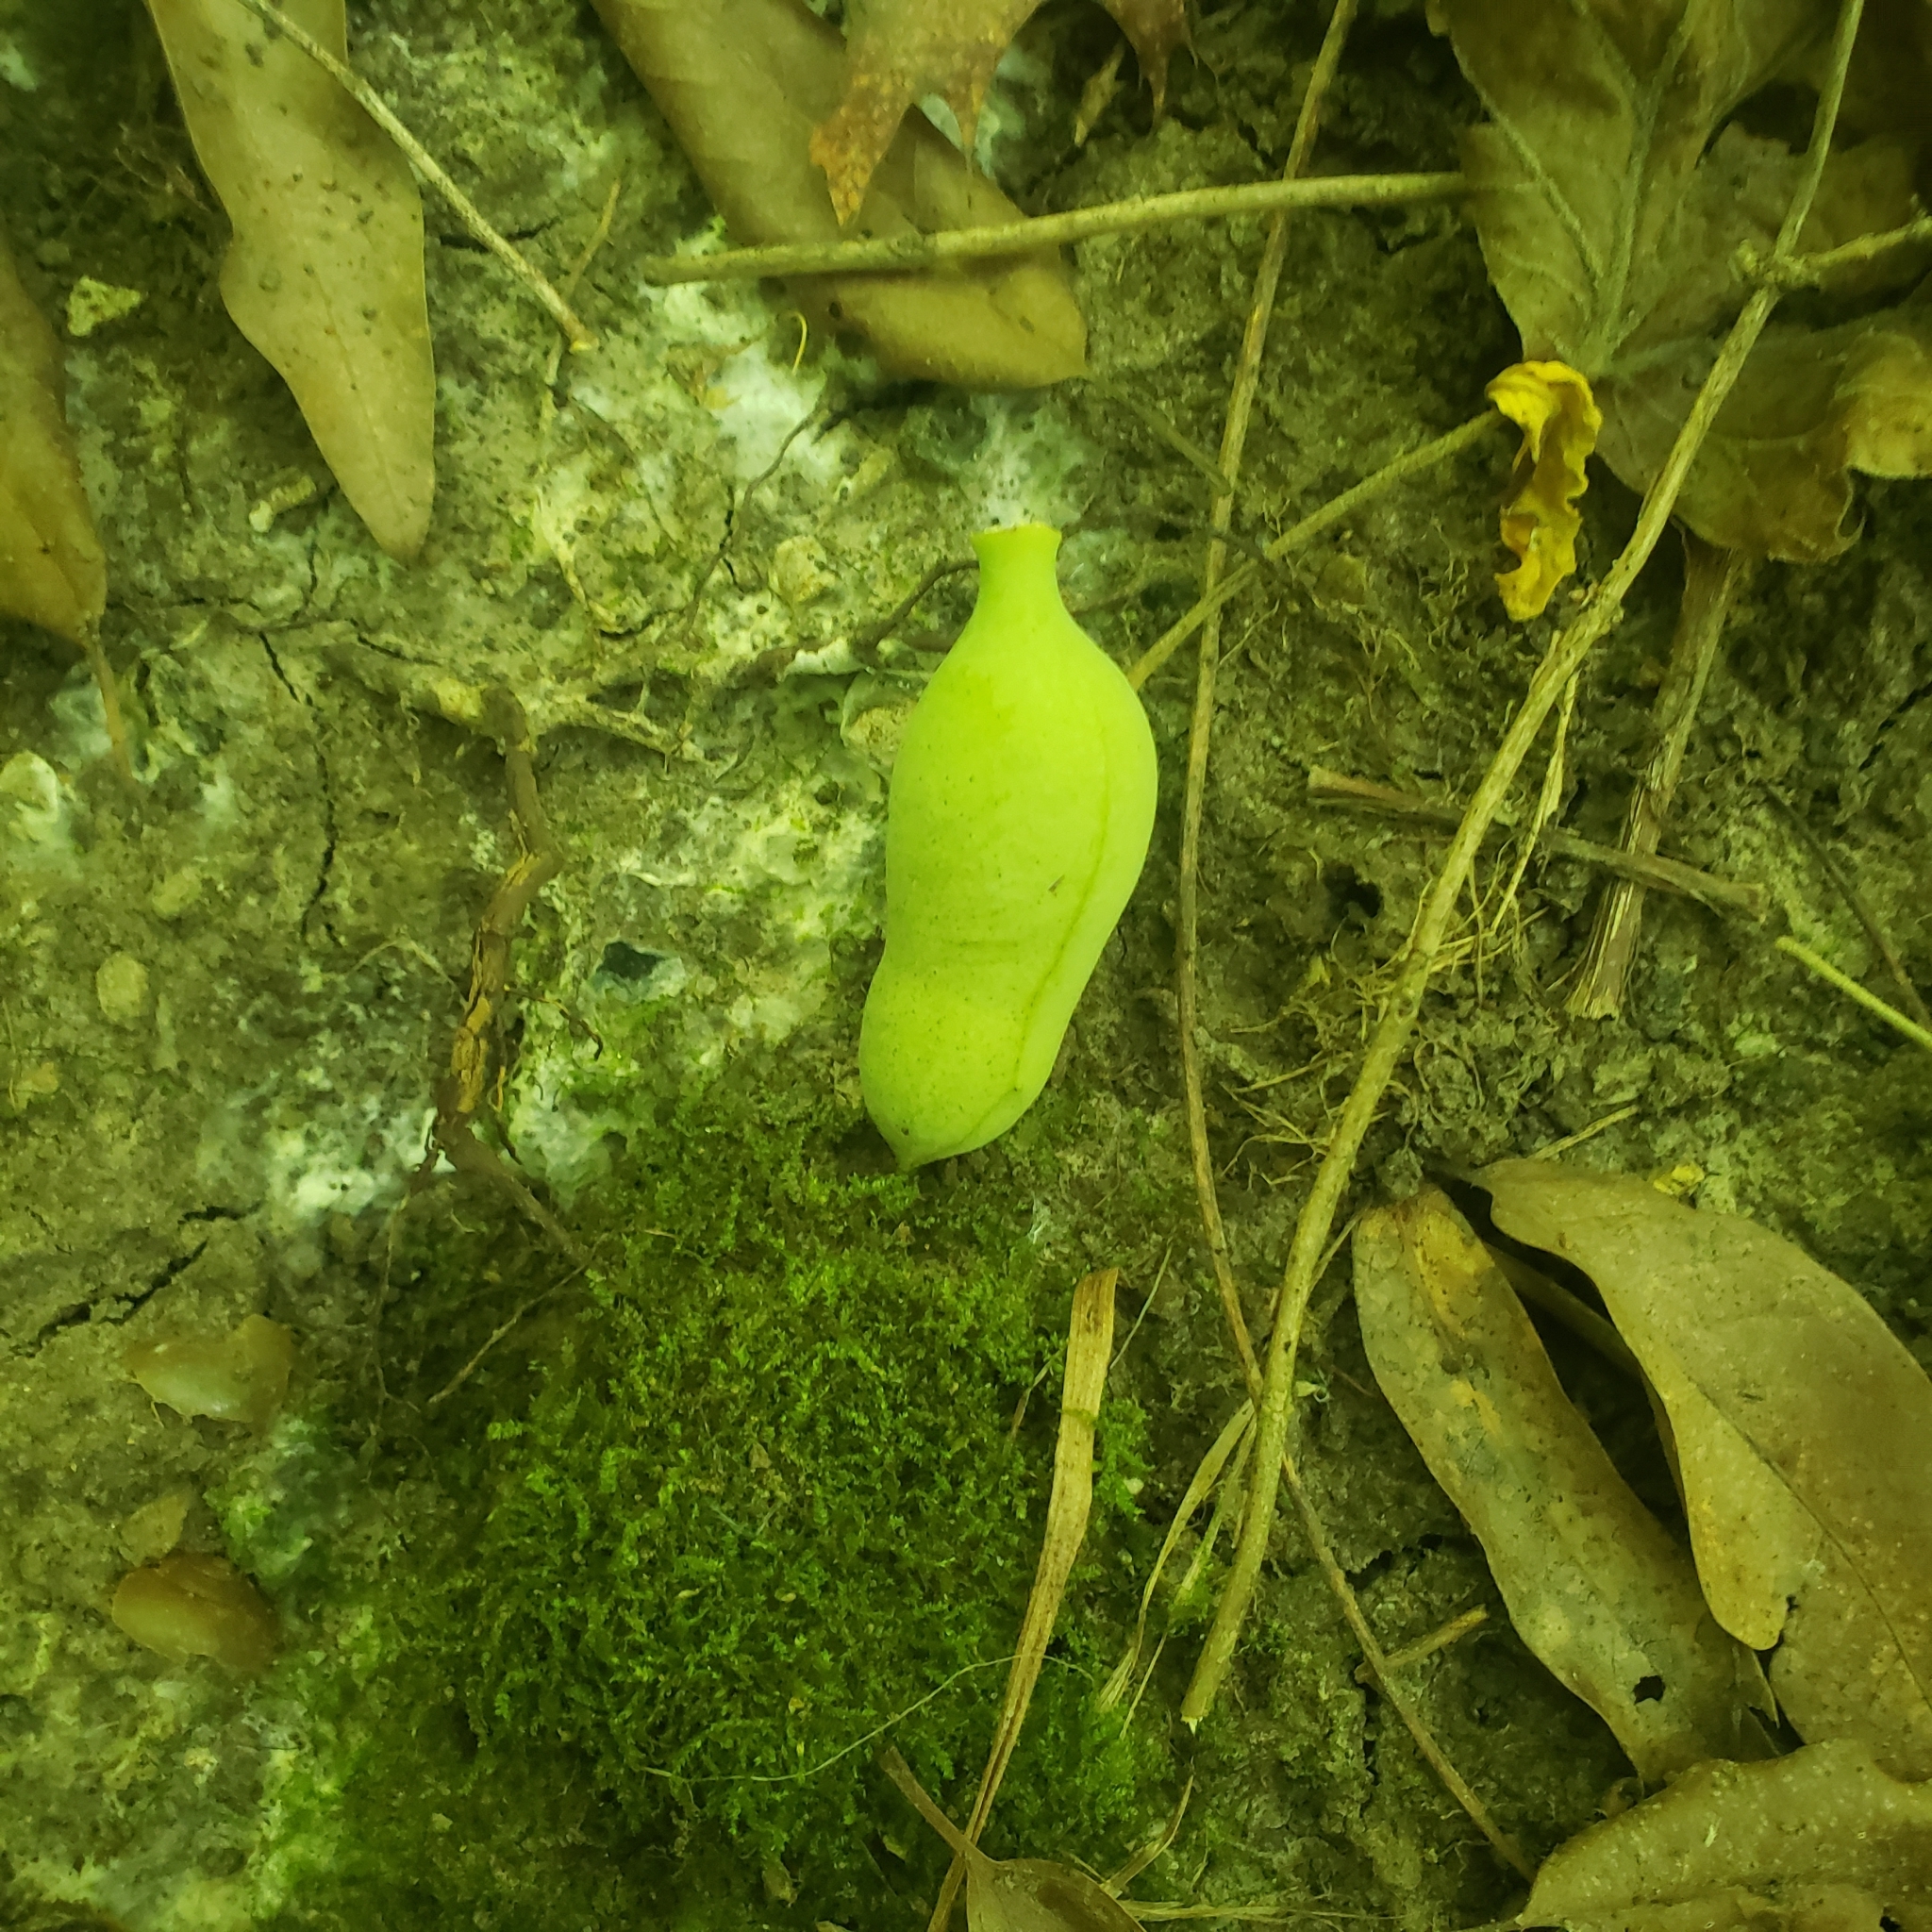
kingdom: Plantae
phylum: Tracheophyta
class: Magnoliopsida
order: Magnoliales
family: Annonaceae
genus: Asimina
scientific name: Asimina triloba
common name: Dog-banana
